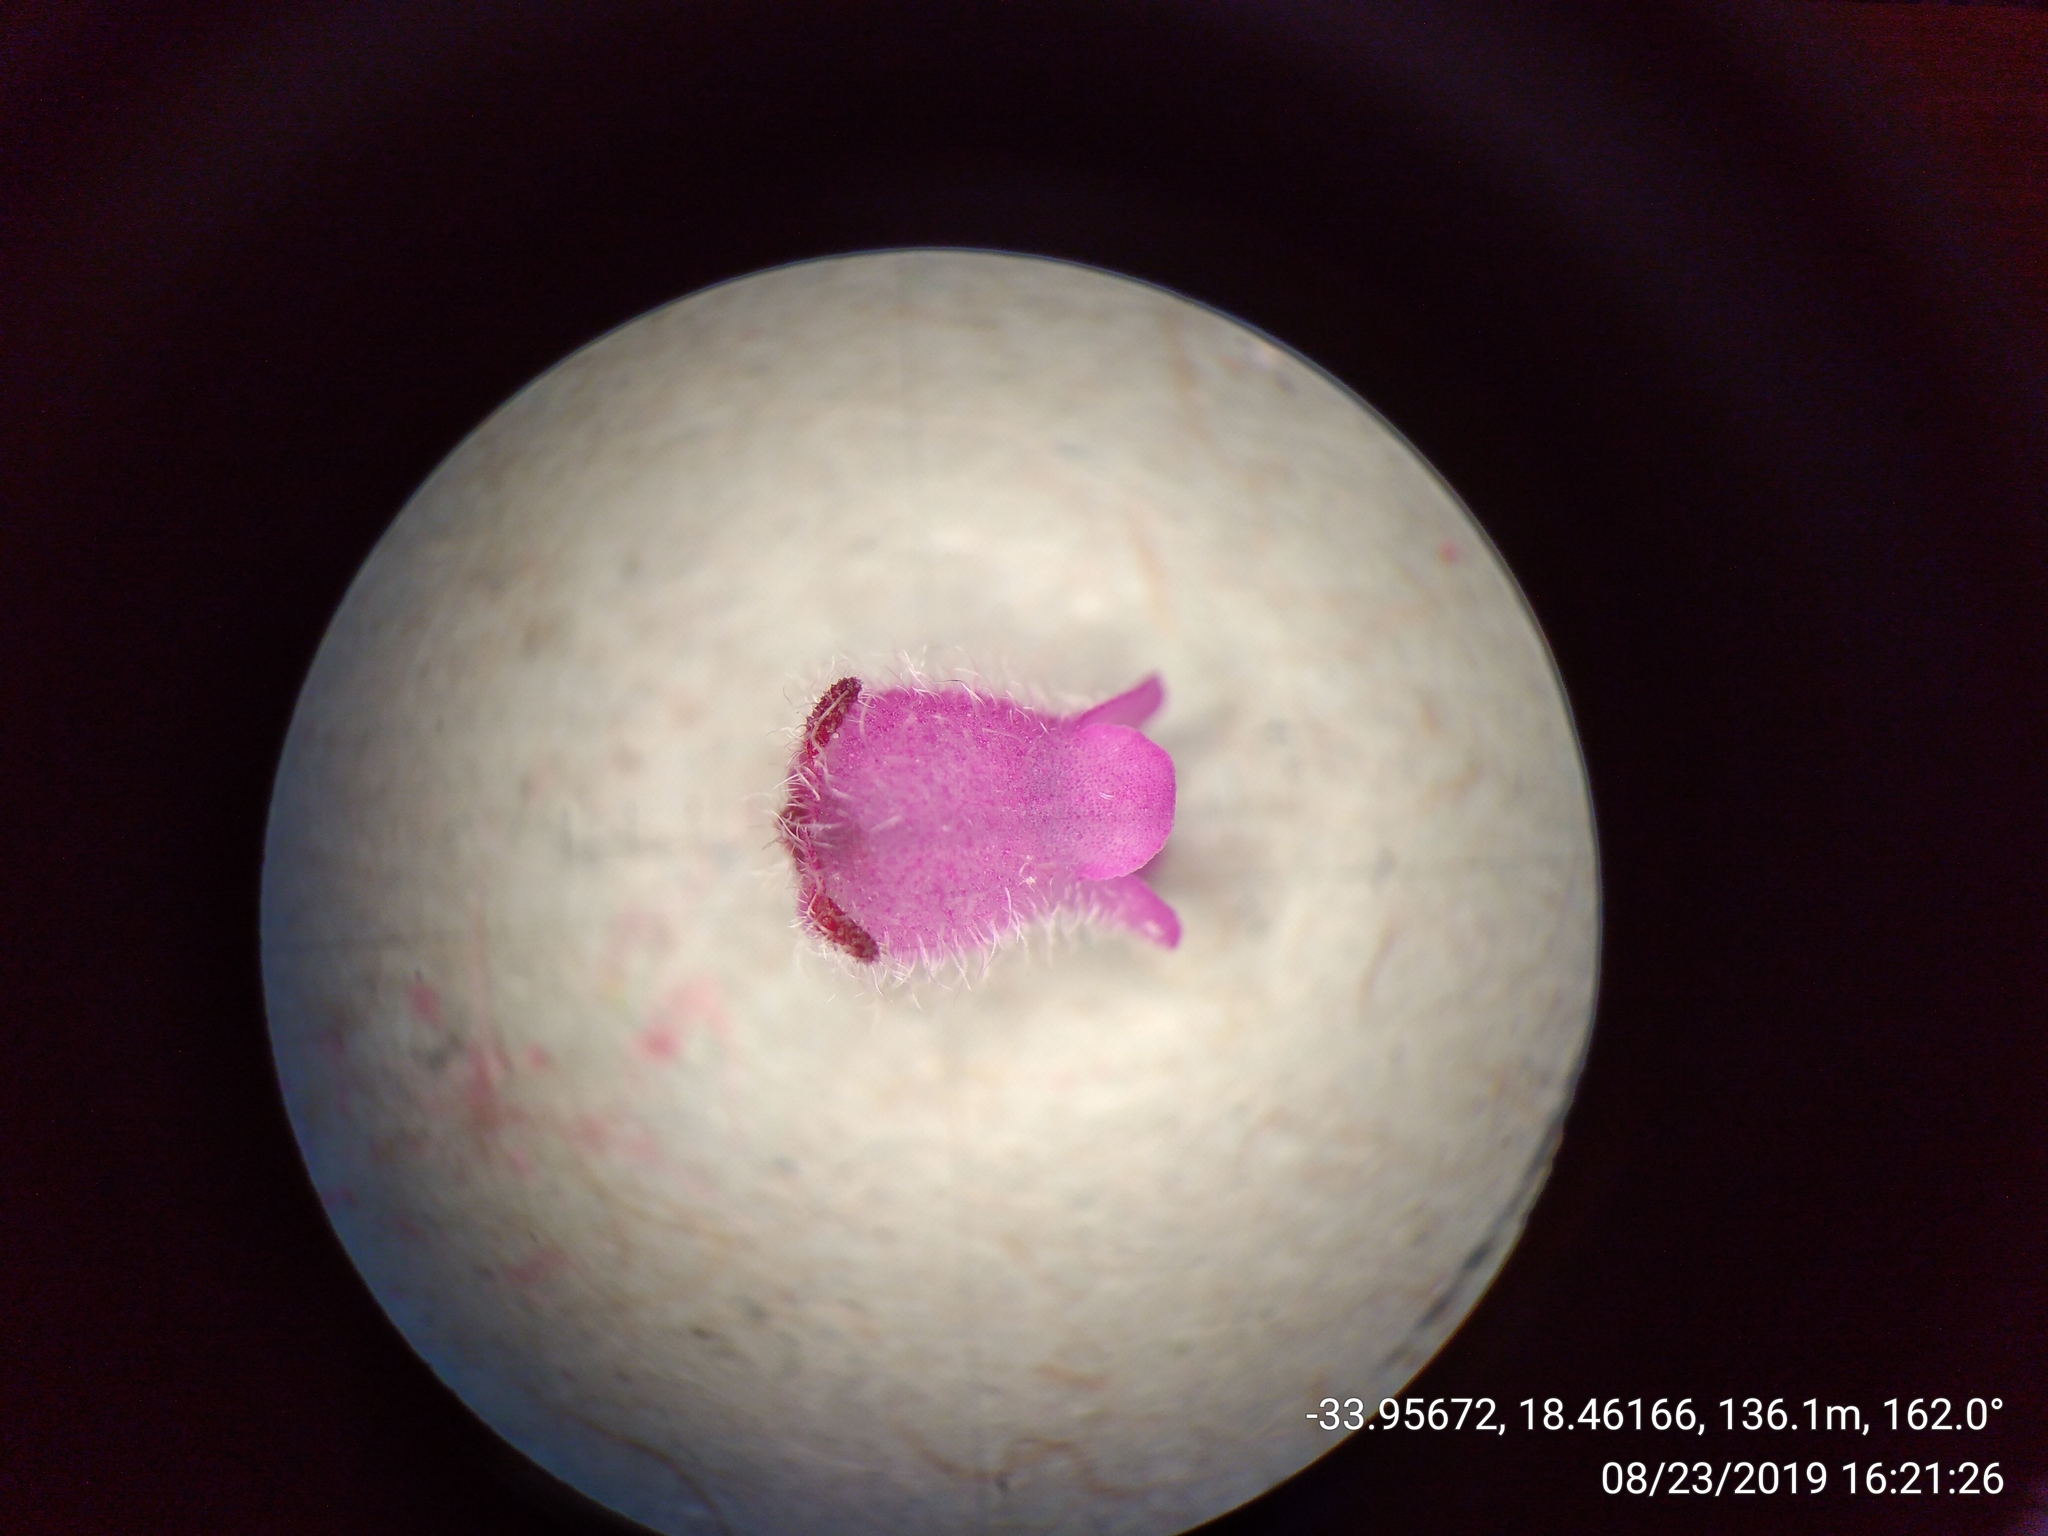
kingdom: Plantae
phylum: Tracheophyta
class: Magnoliopsida
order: Ericales
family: Ericaceae
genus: Erica
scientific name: Erica mollis
